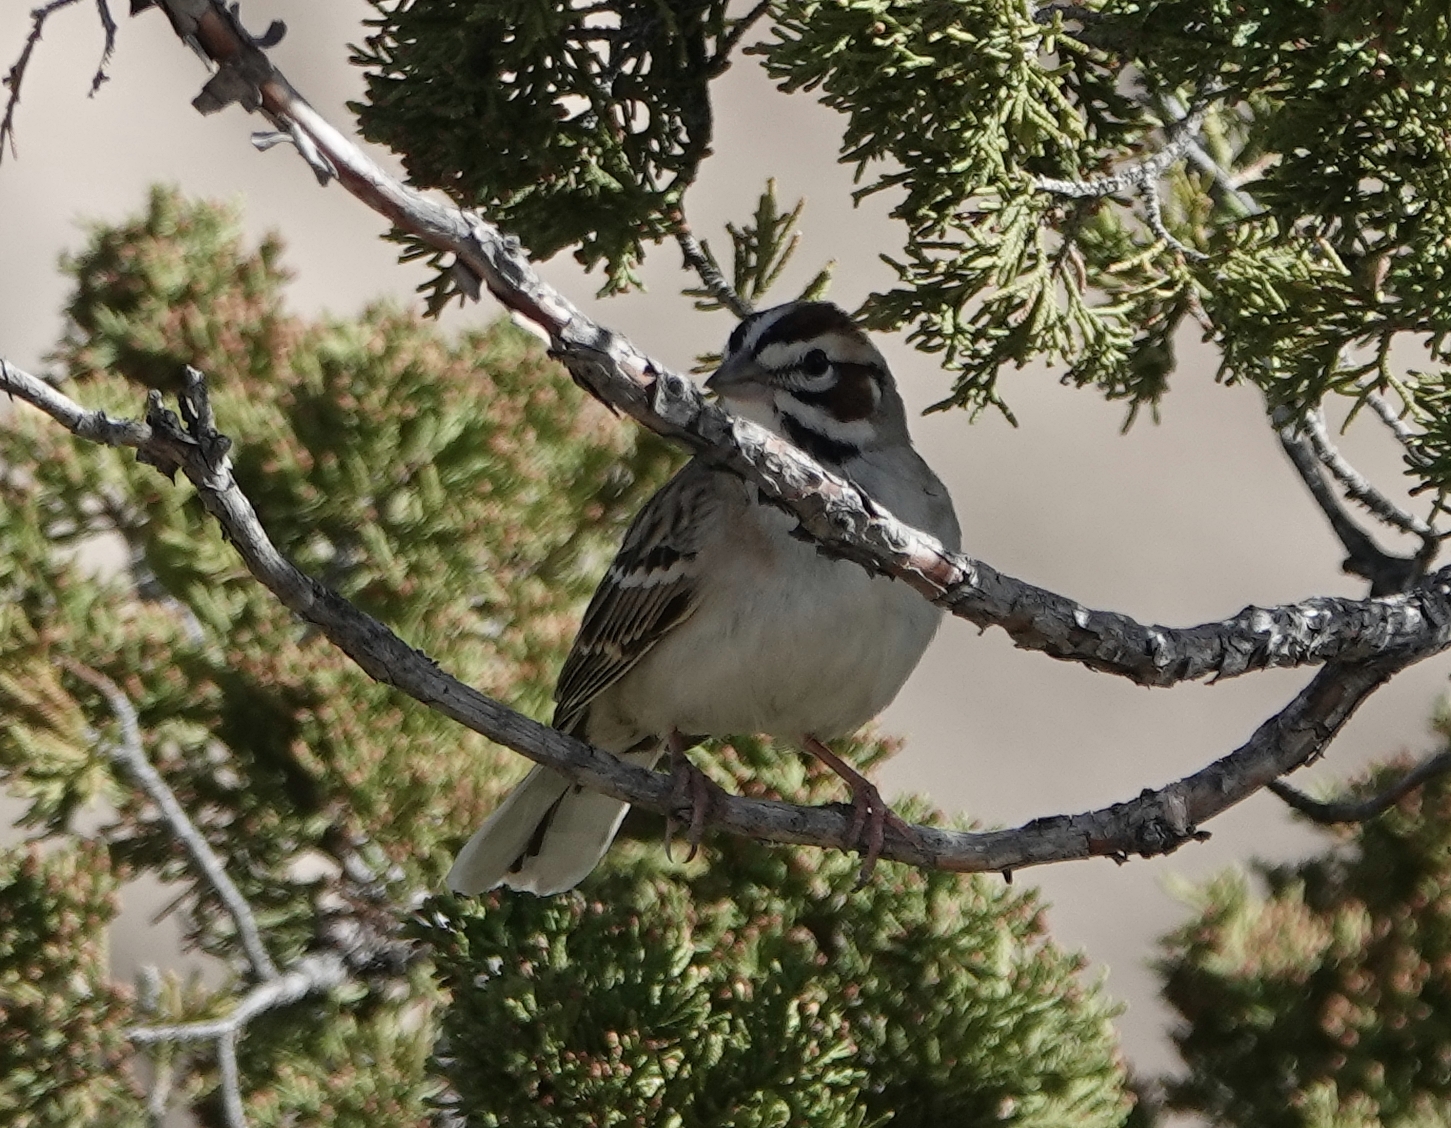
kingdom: Animalia
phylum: Chordata
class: Aves
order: Passeriformes
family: Passerellidae
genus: Chondestes
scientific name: Chondestes grammacus
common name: Lark sparrow
